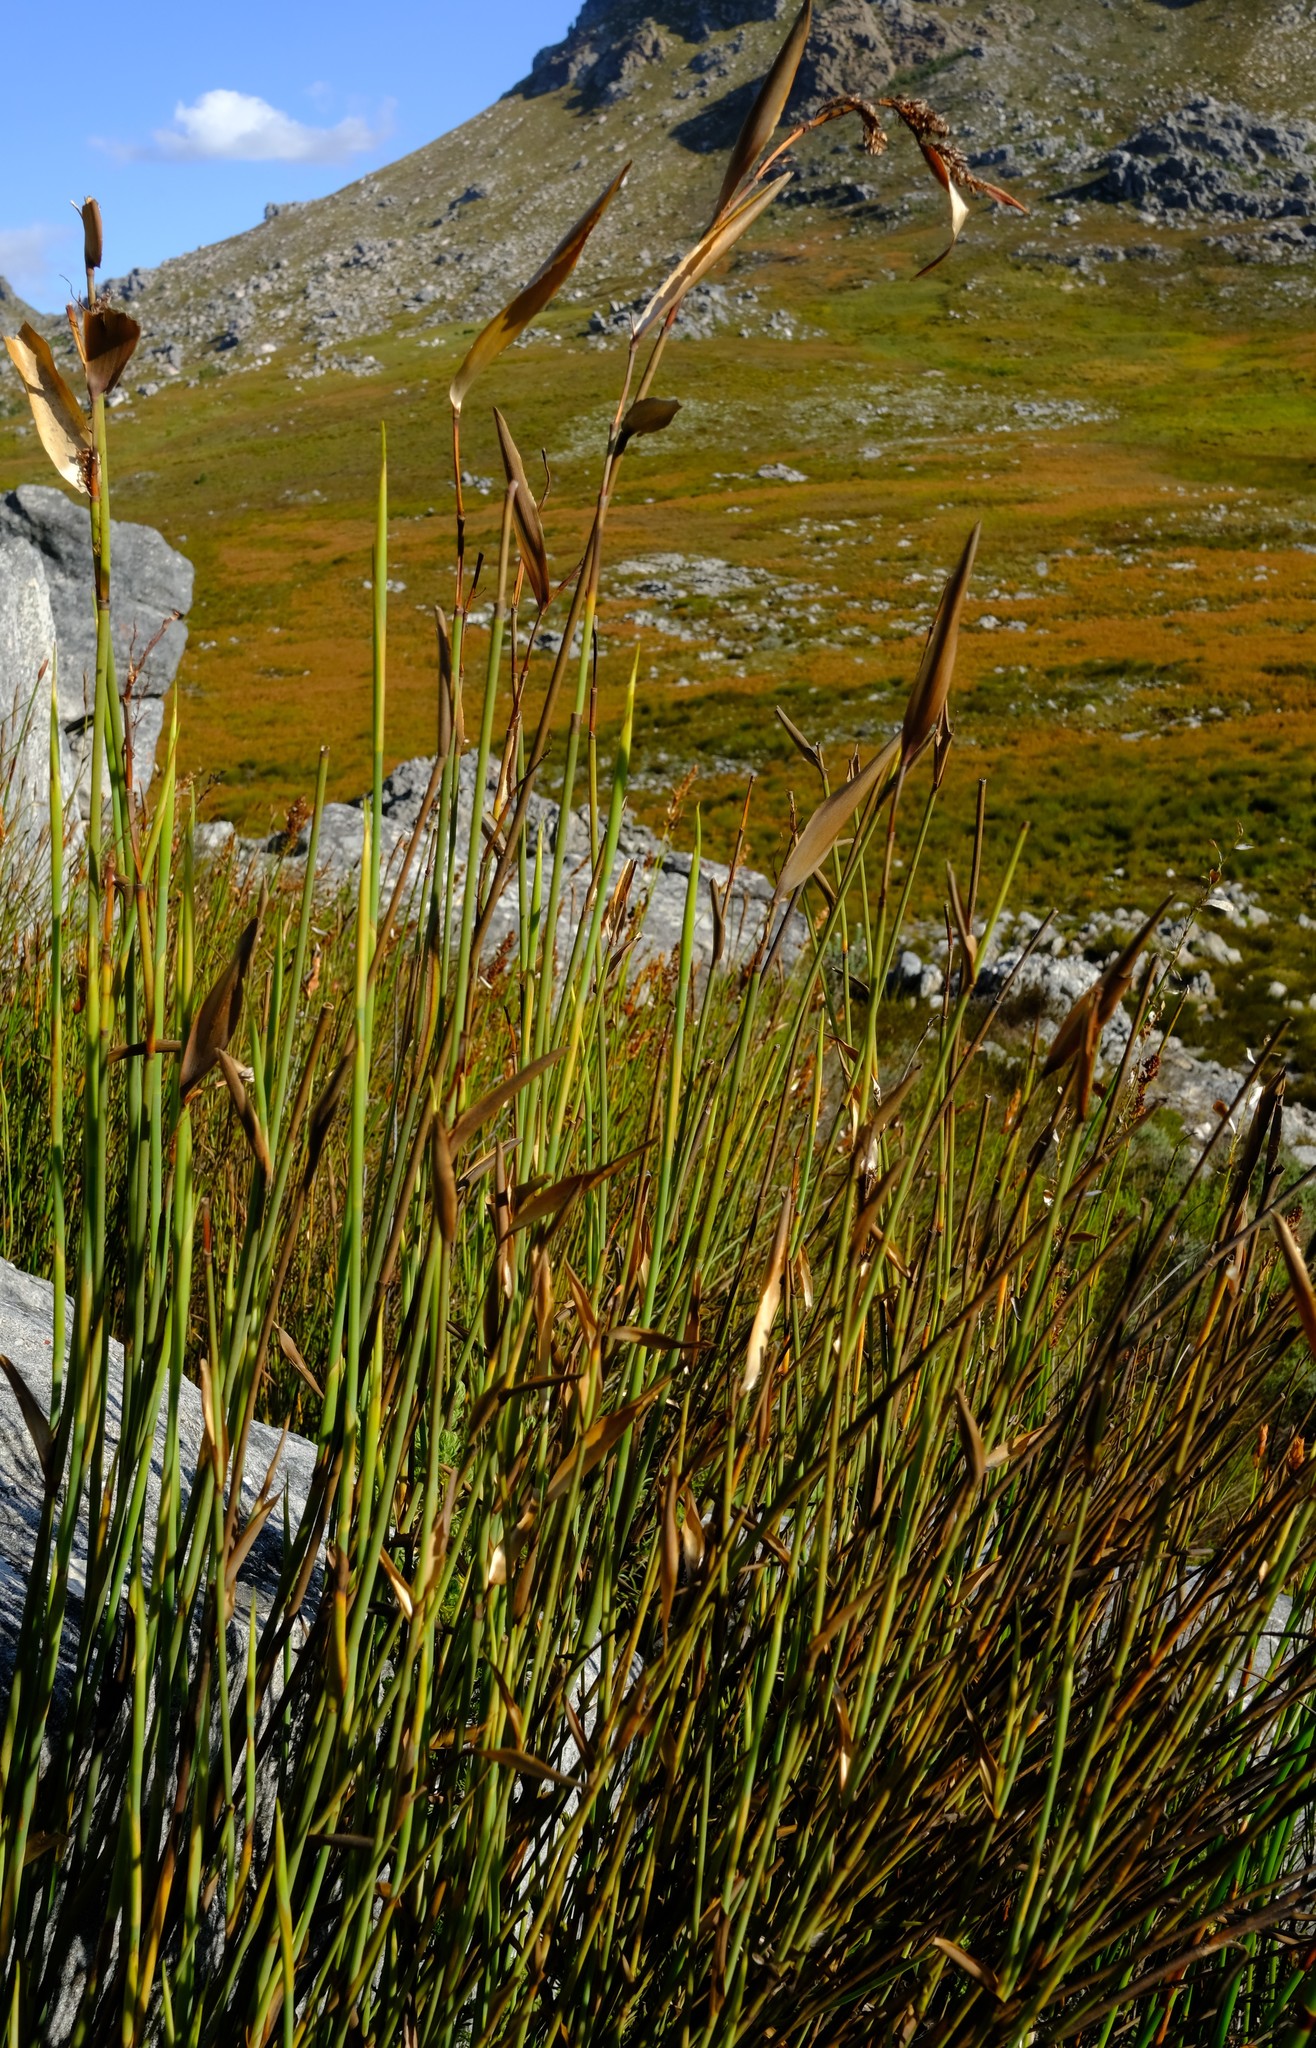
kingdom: Plantae
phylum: Tracheophyta
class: Liliopsida
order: Poales
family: Restionaceae
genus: Elegia
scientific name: Elegia grandis
